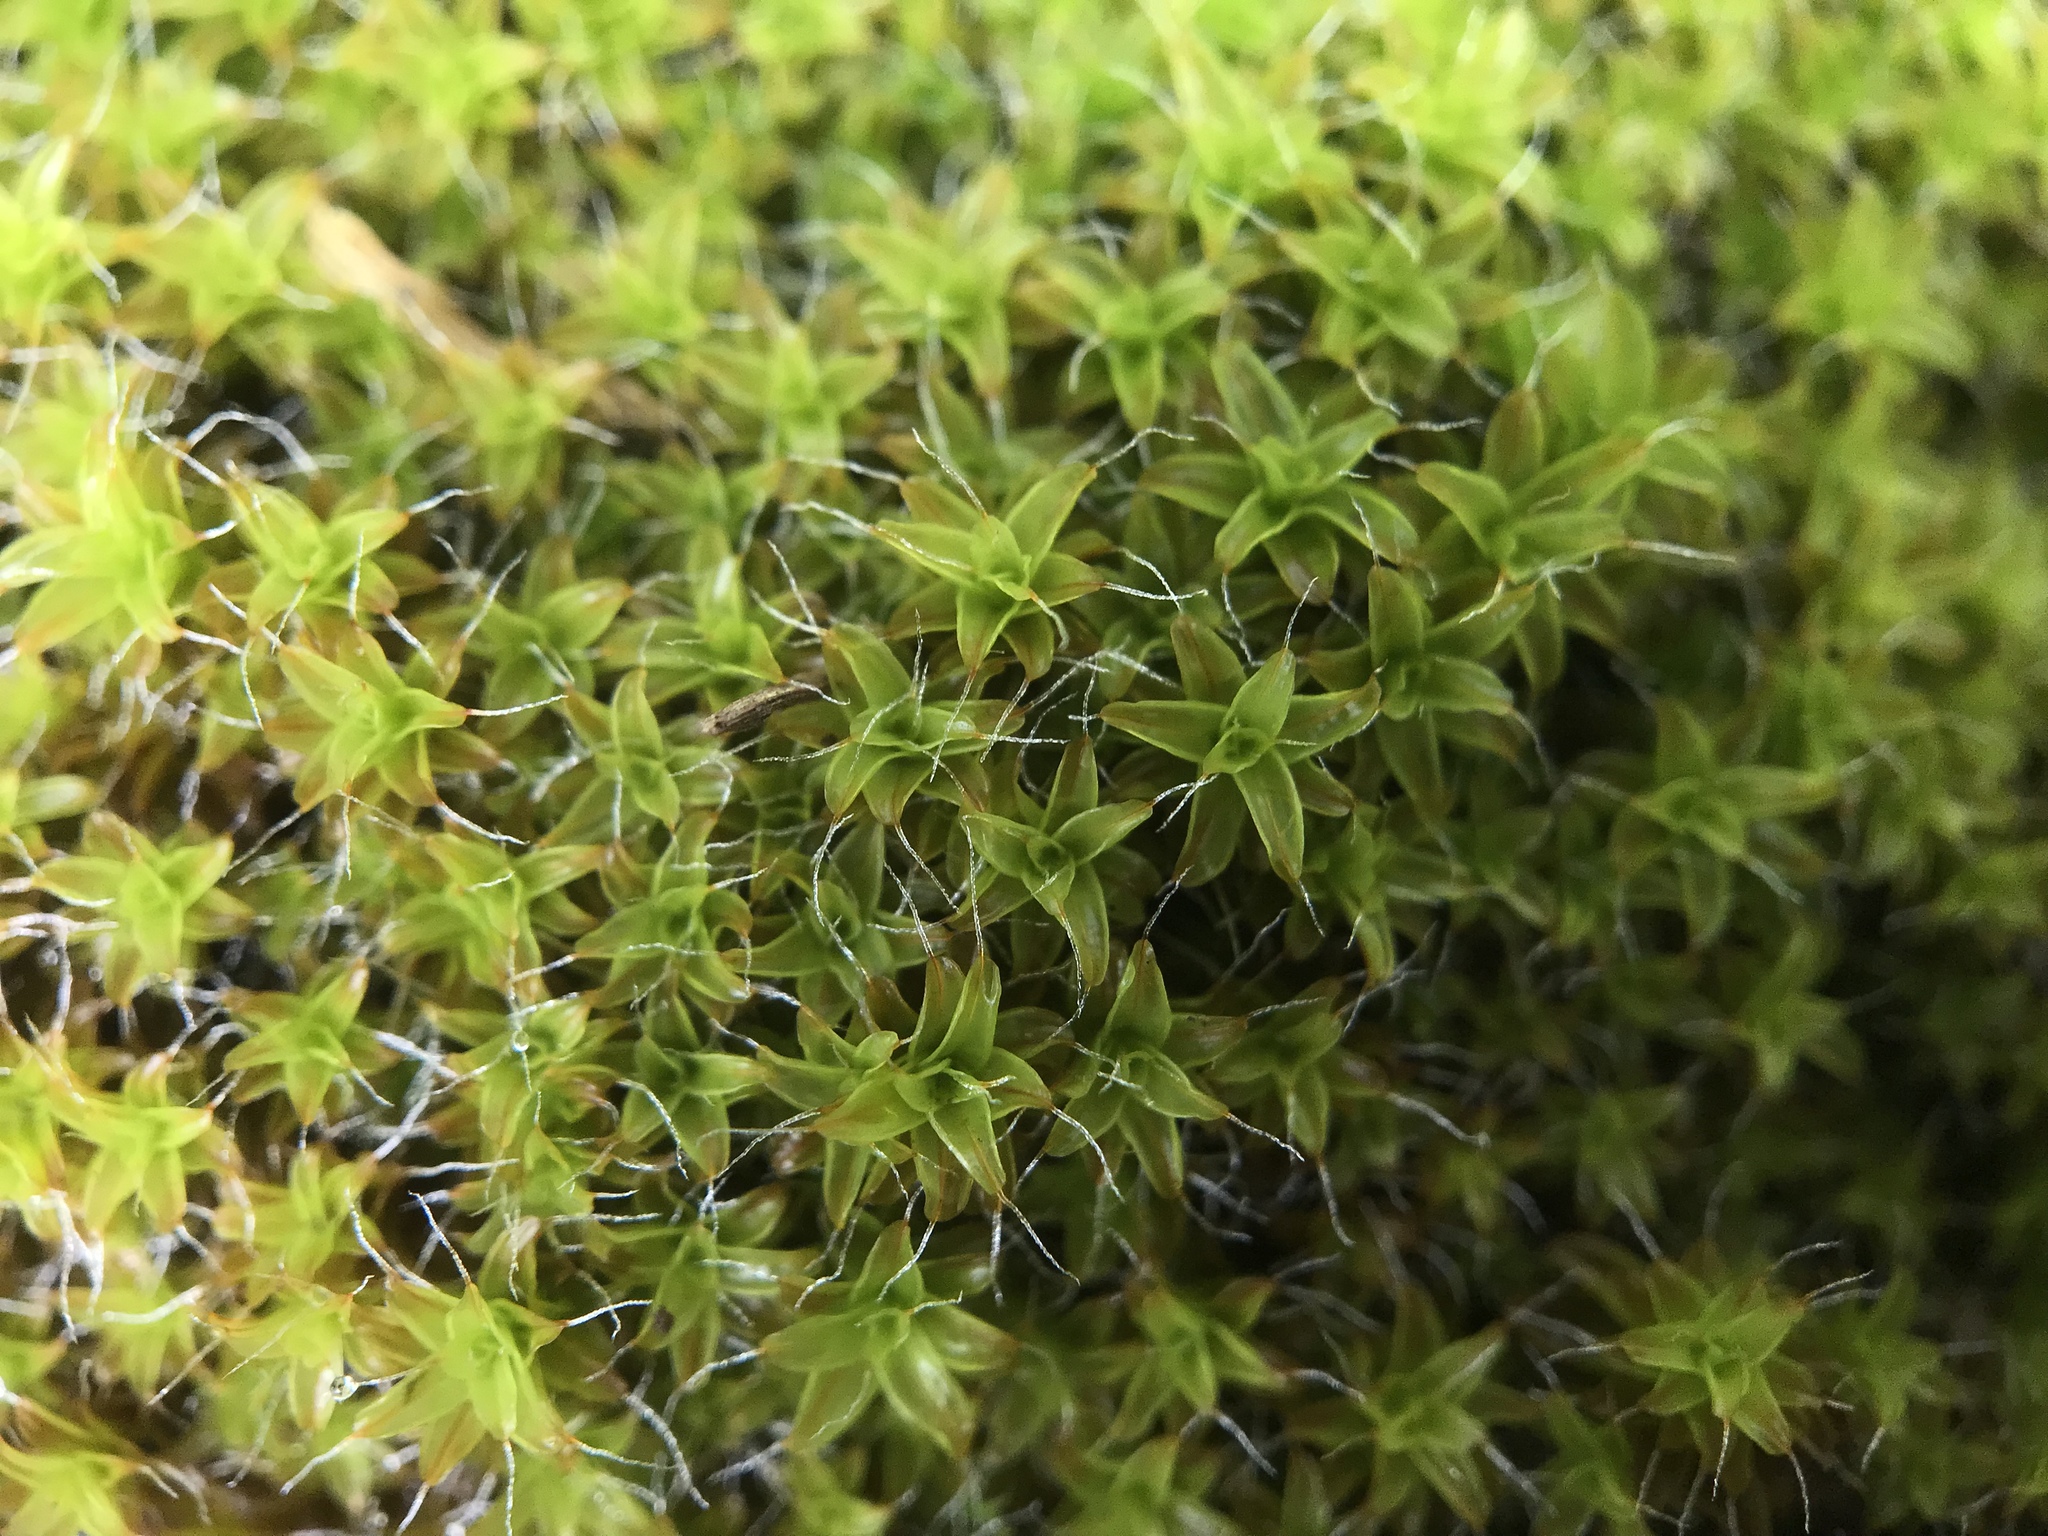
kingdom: Plantae
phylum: Bryophyta
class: Bryopsida
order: Pottiales
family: Pottiaceae
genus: Syntrichia
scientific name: Syntrichia ruralis
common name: Sidewalk screw moss
